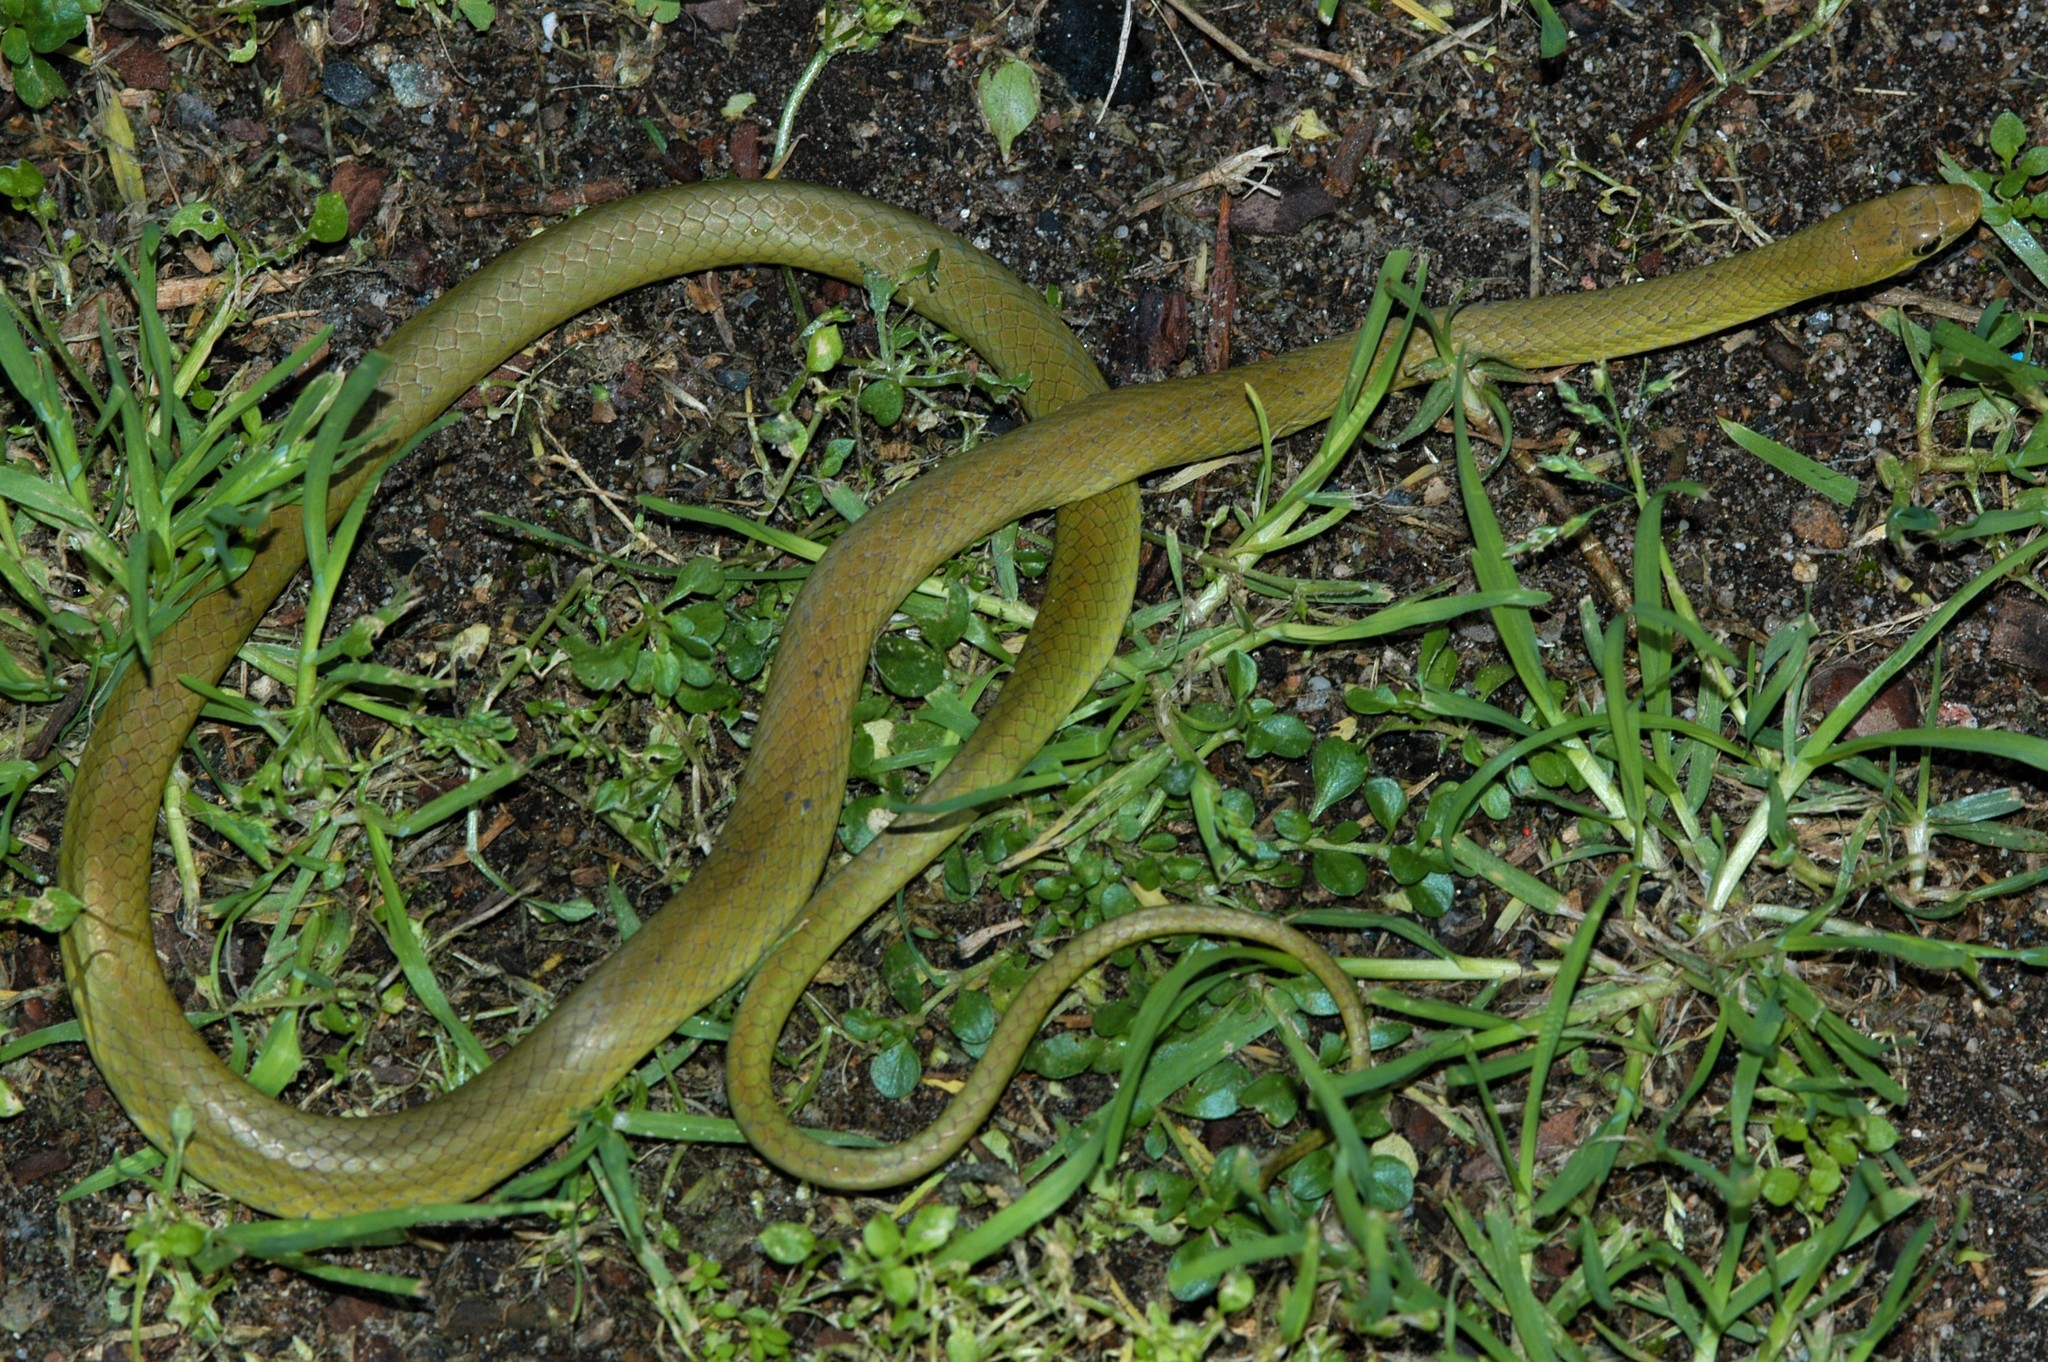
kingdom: Animalia
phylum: Chordata
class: Squamata
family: Colubridae
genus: Philothamnus
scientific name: Philothamnus hoplogaster
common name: Green water snake
